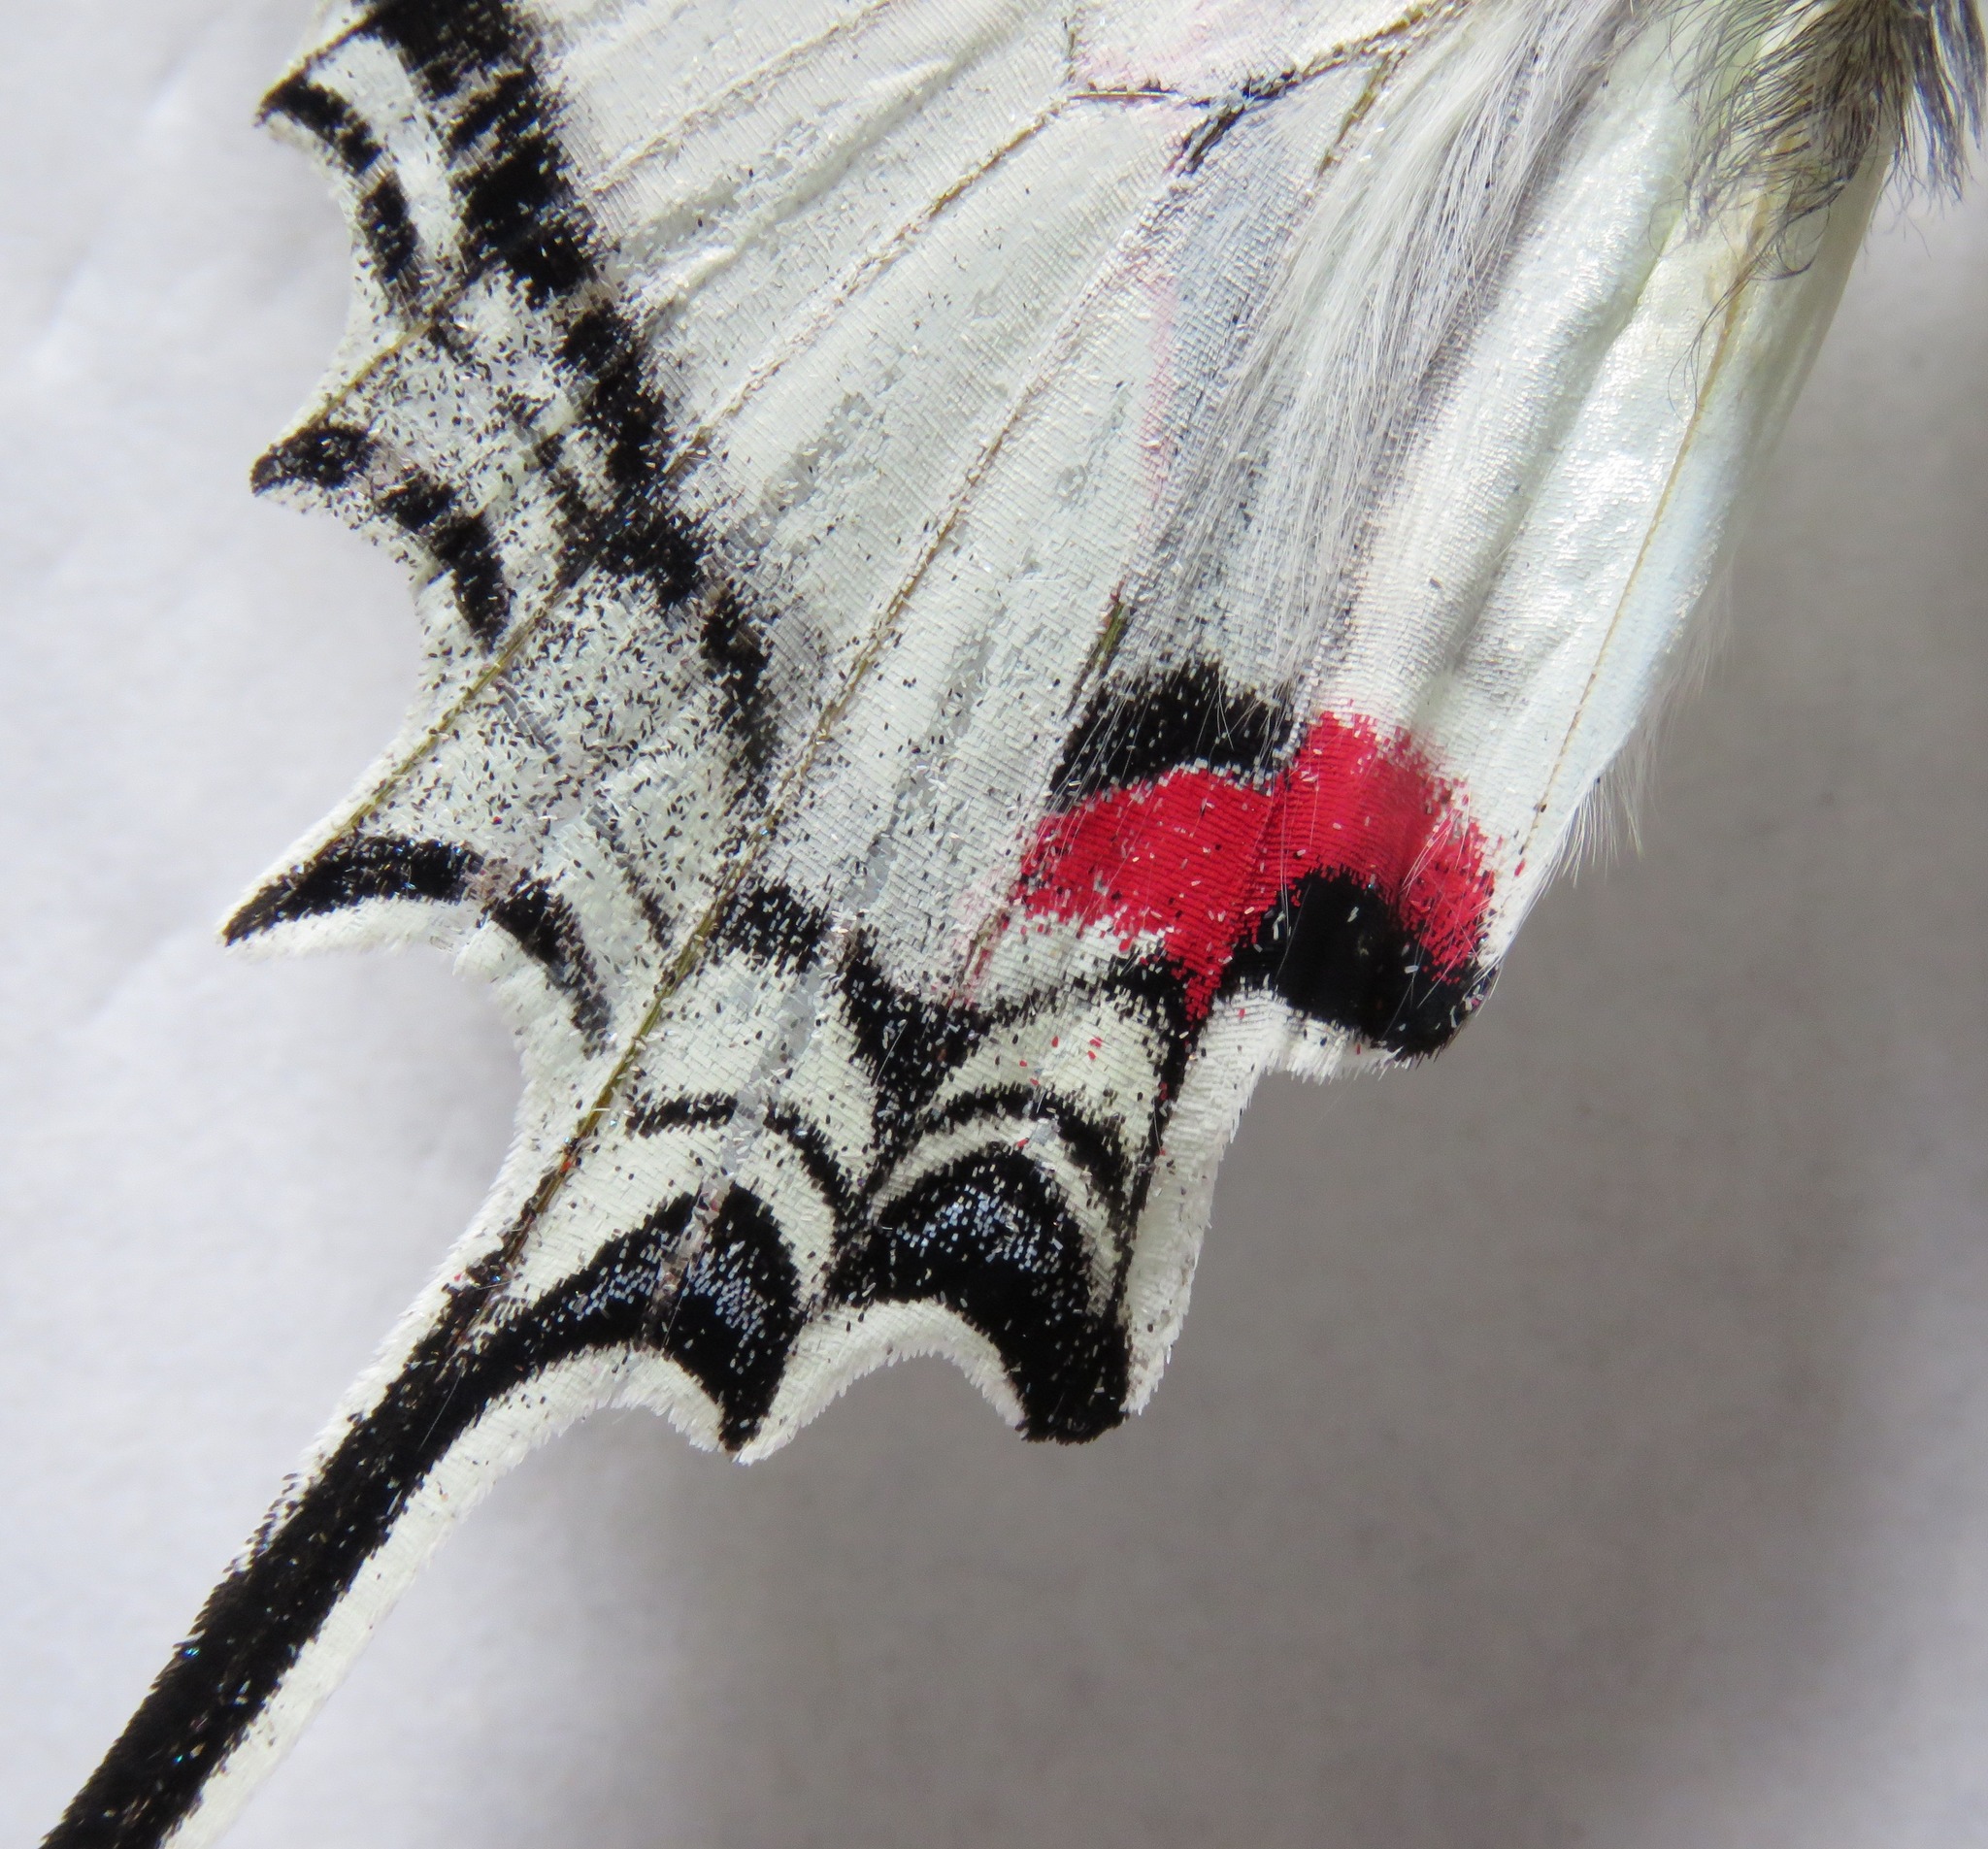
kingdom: Animalia
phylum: Arthropoda
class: Insecta
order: Lepidoptera
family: Papilionidae
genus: Protesilaus
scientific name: Protesilaus macrosilaus
